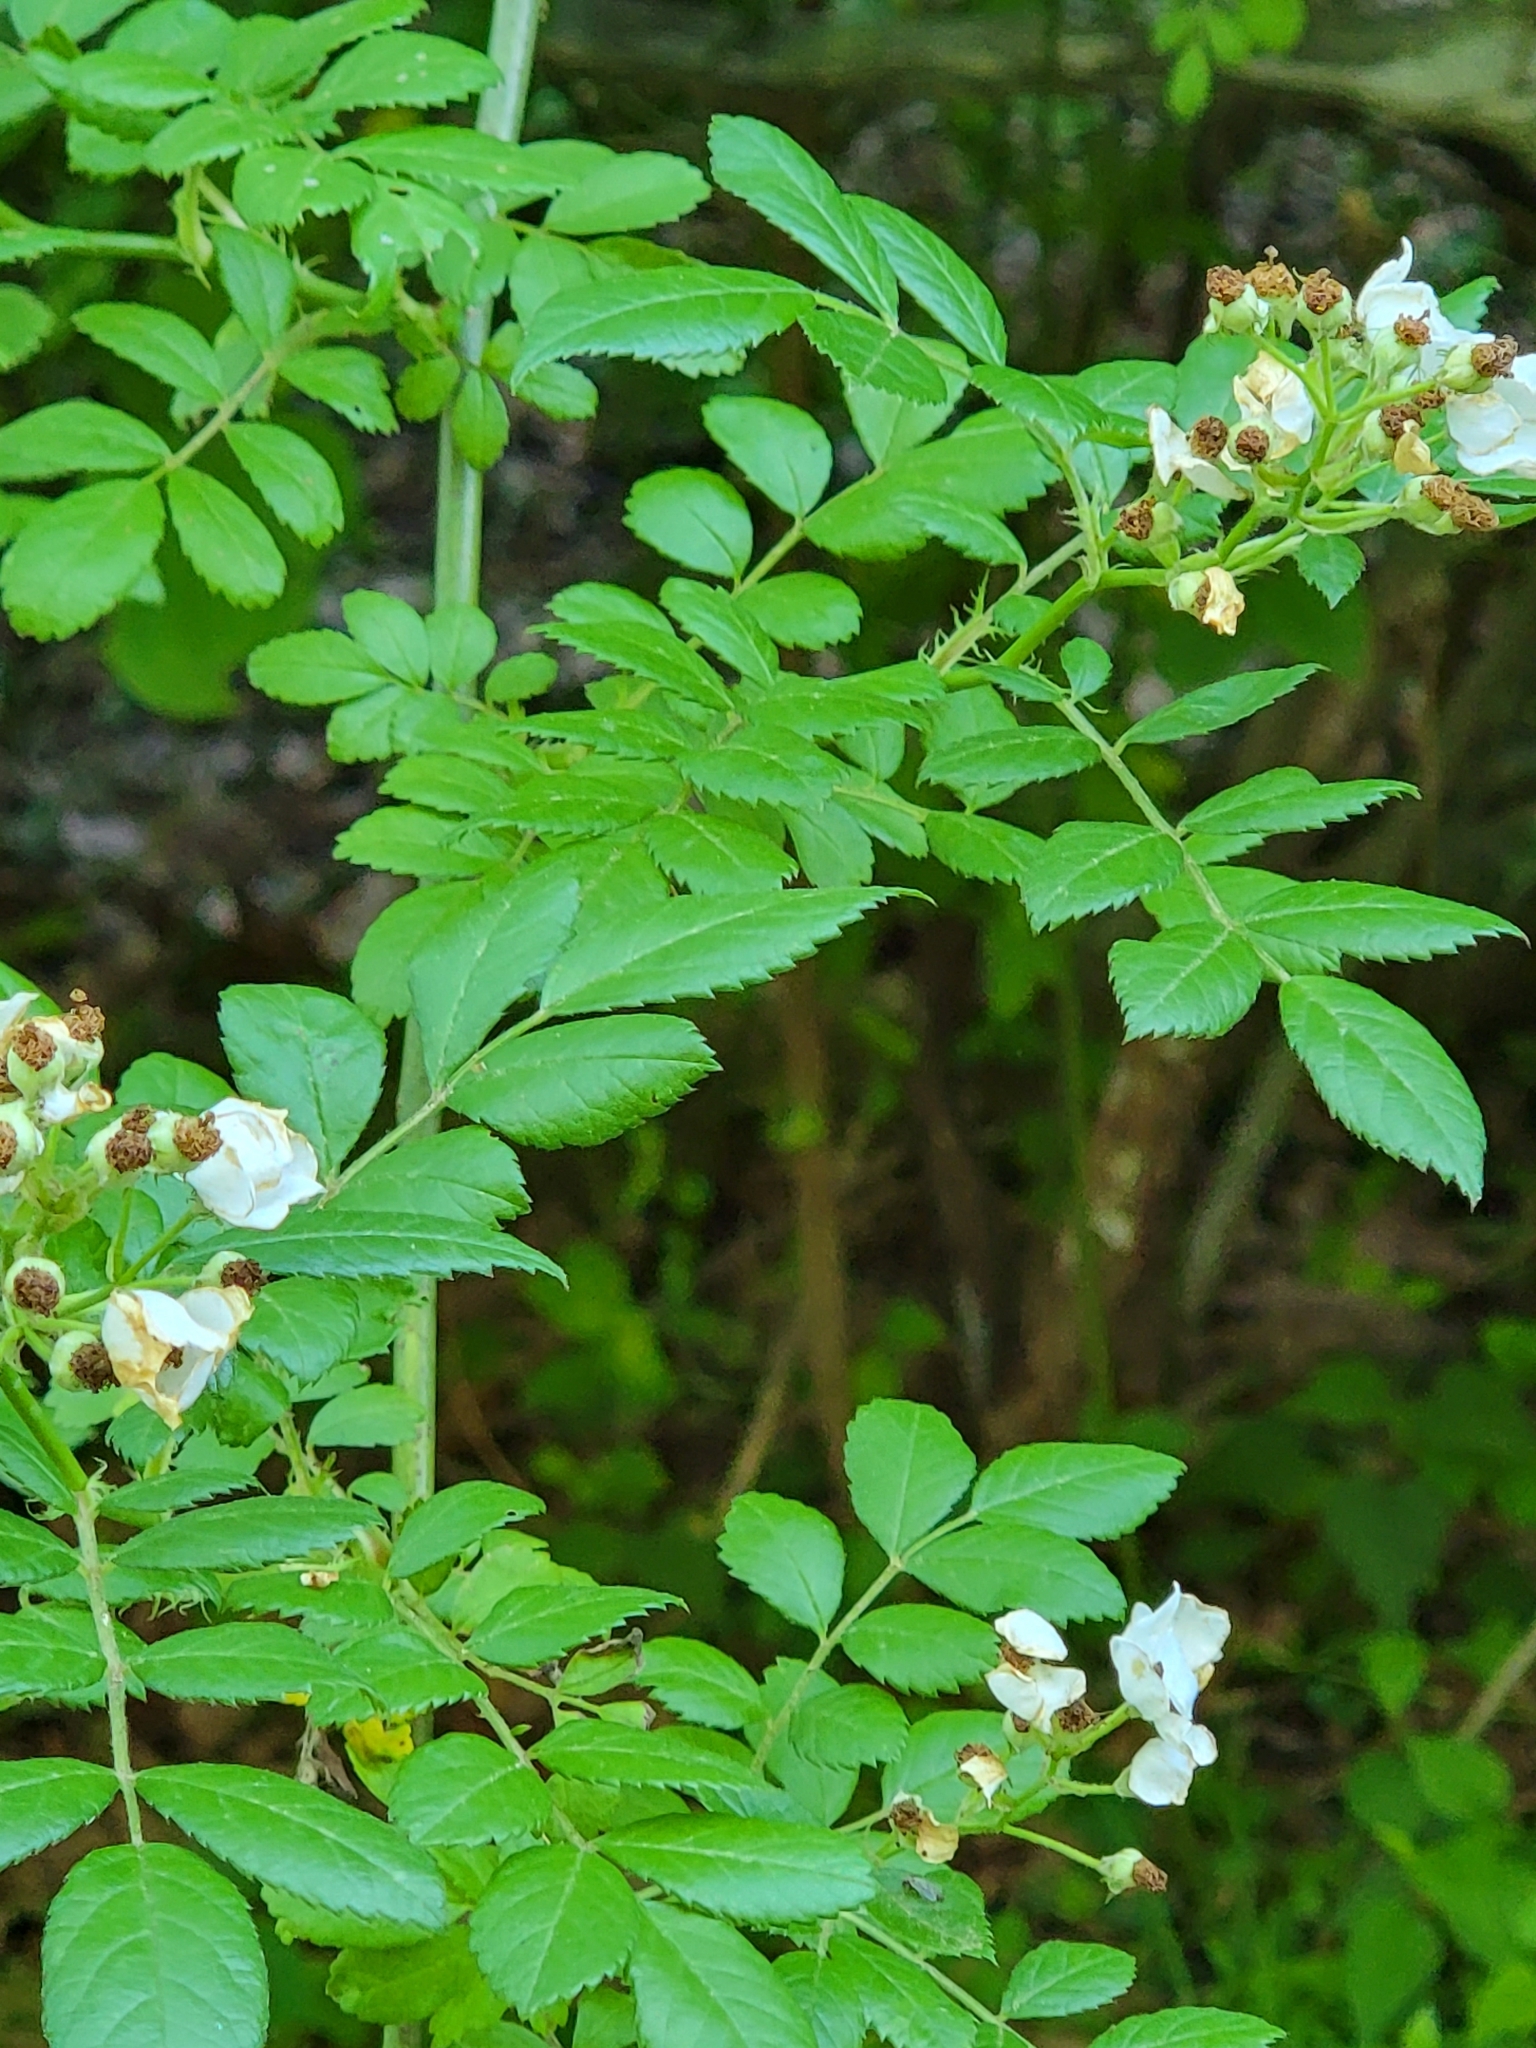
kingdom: Plantae
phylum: Tracheophyta
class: Magnoliopsida
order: Rosales
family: Rosaceae
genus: Rosa
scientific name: Rosa multiflora
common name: Multiflora rose
